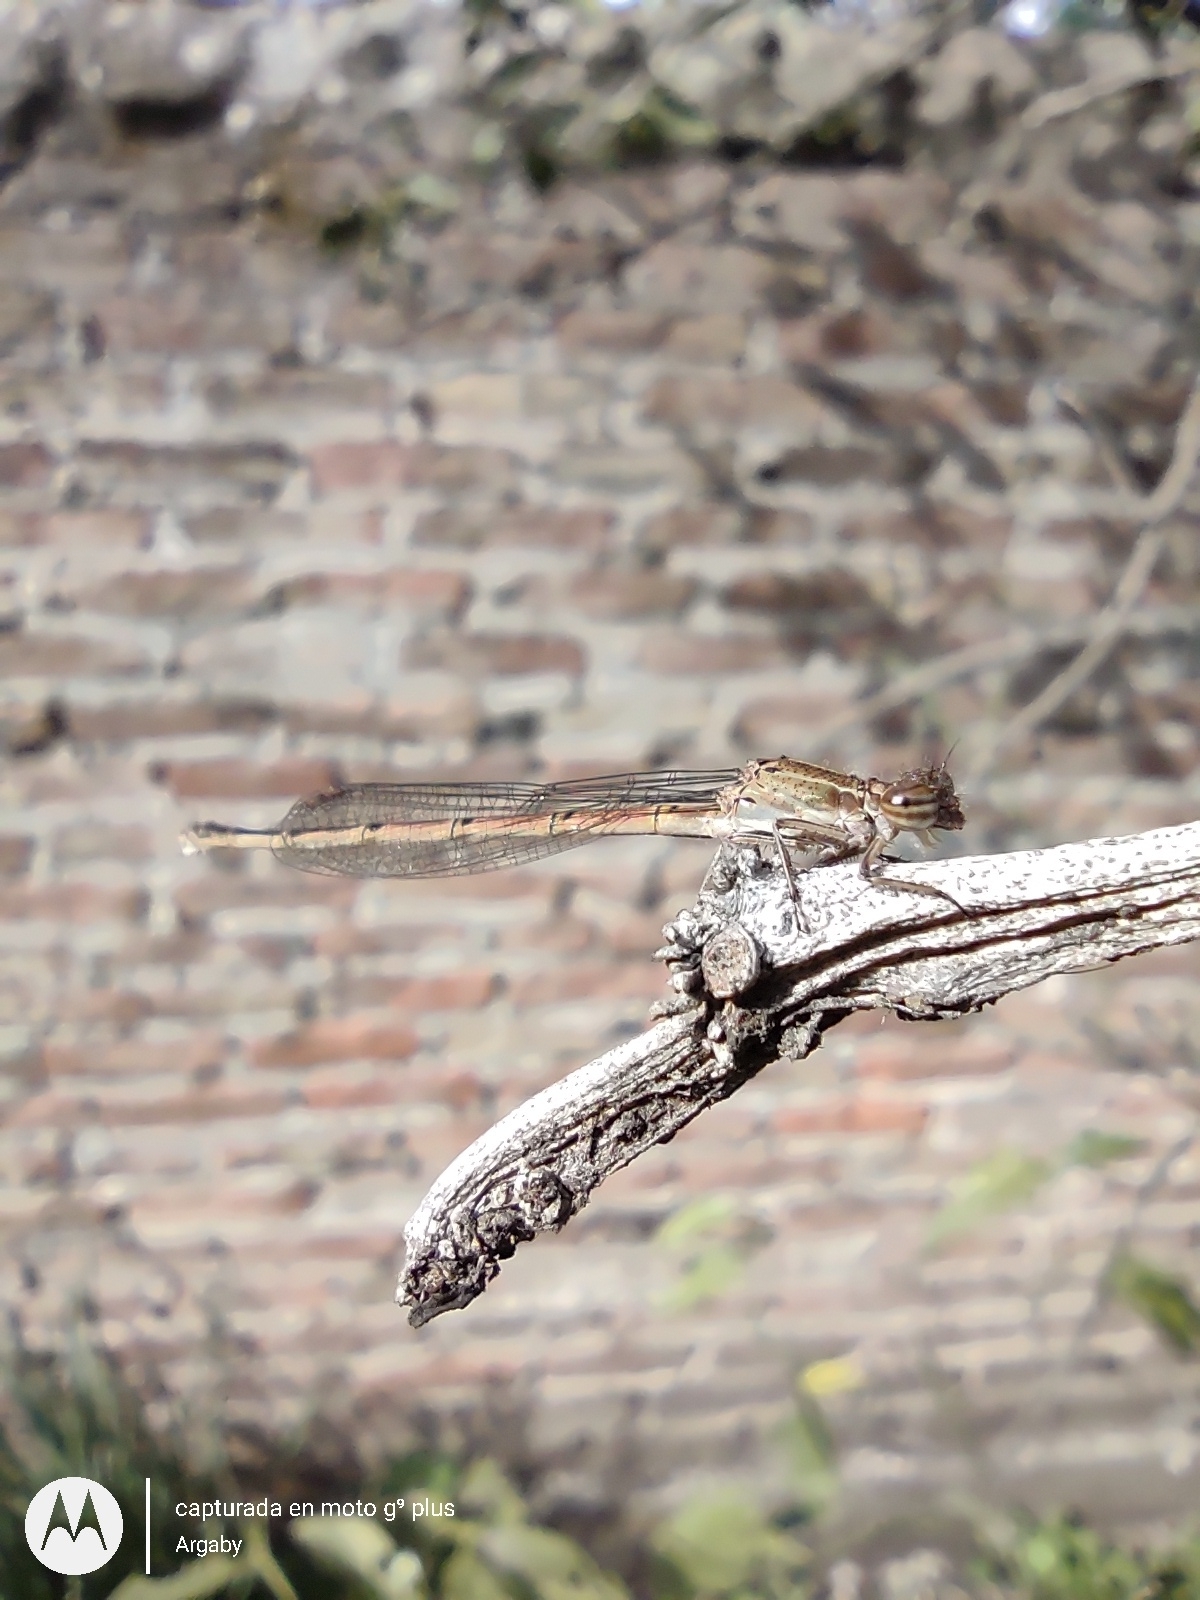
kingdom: Animalia
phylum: Arthropoda
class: Insecta
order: Odonata
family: Coenagrionidae
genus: Oxyagrion
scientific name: Oxyagrion terminale
